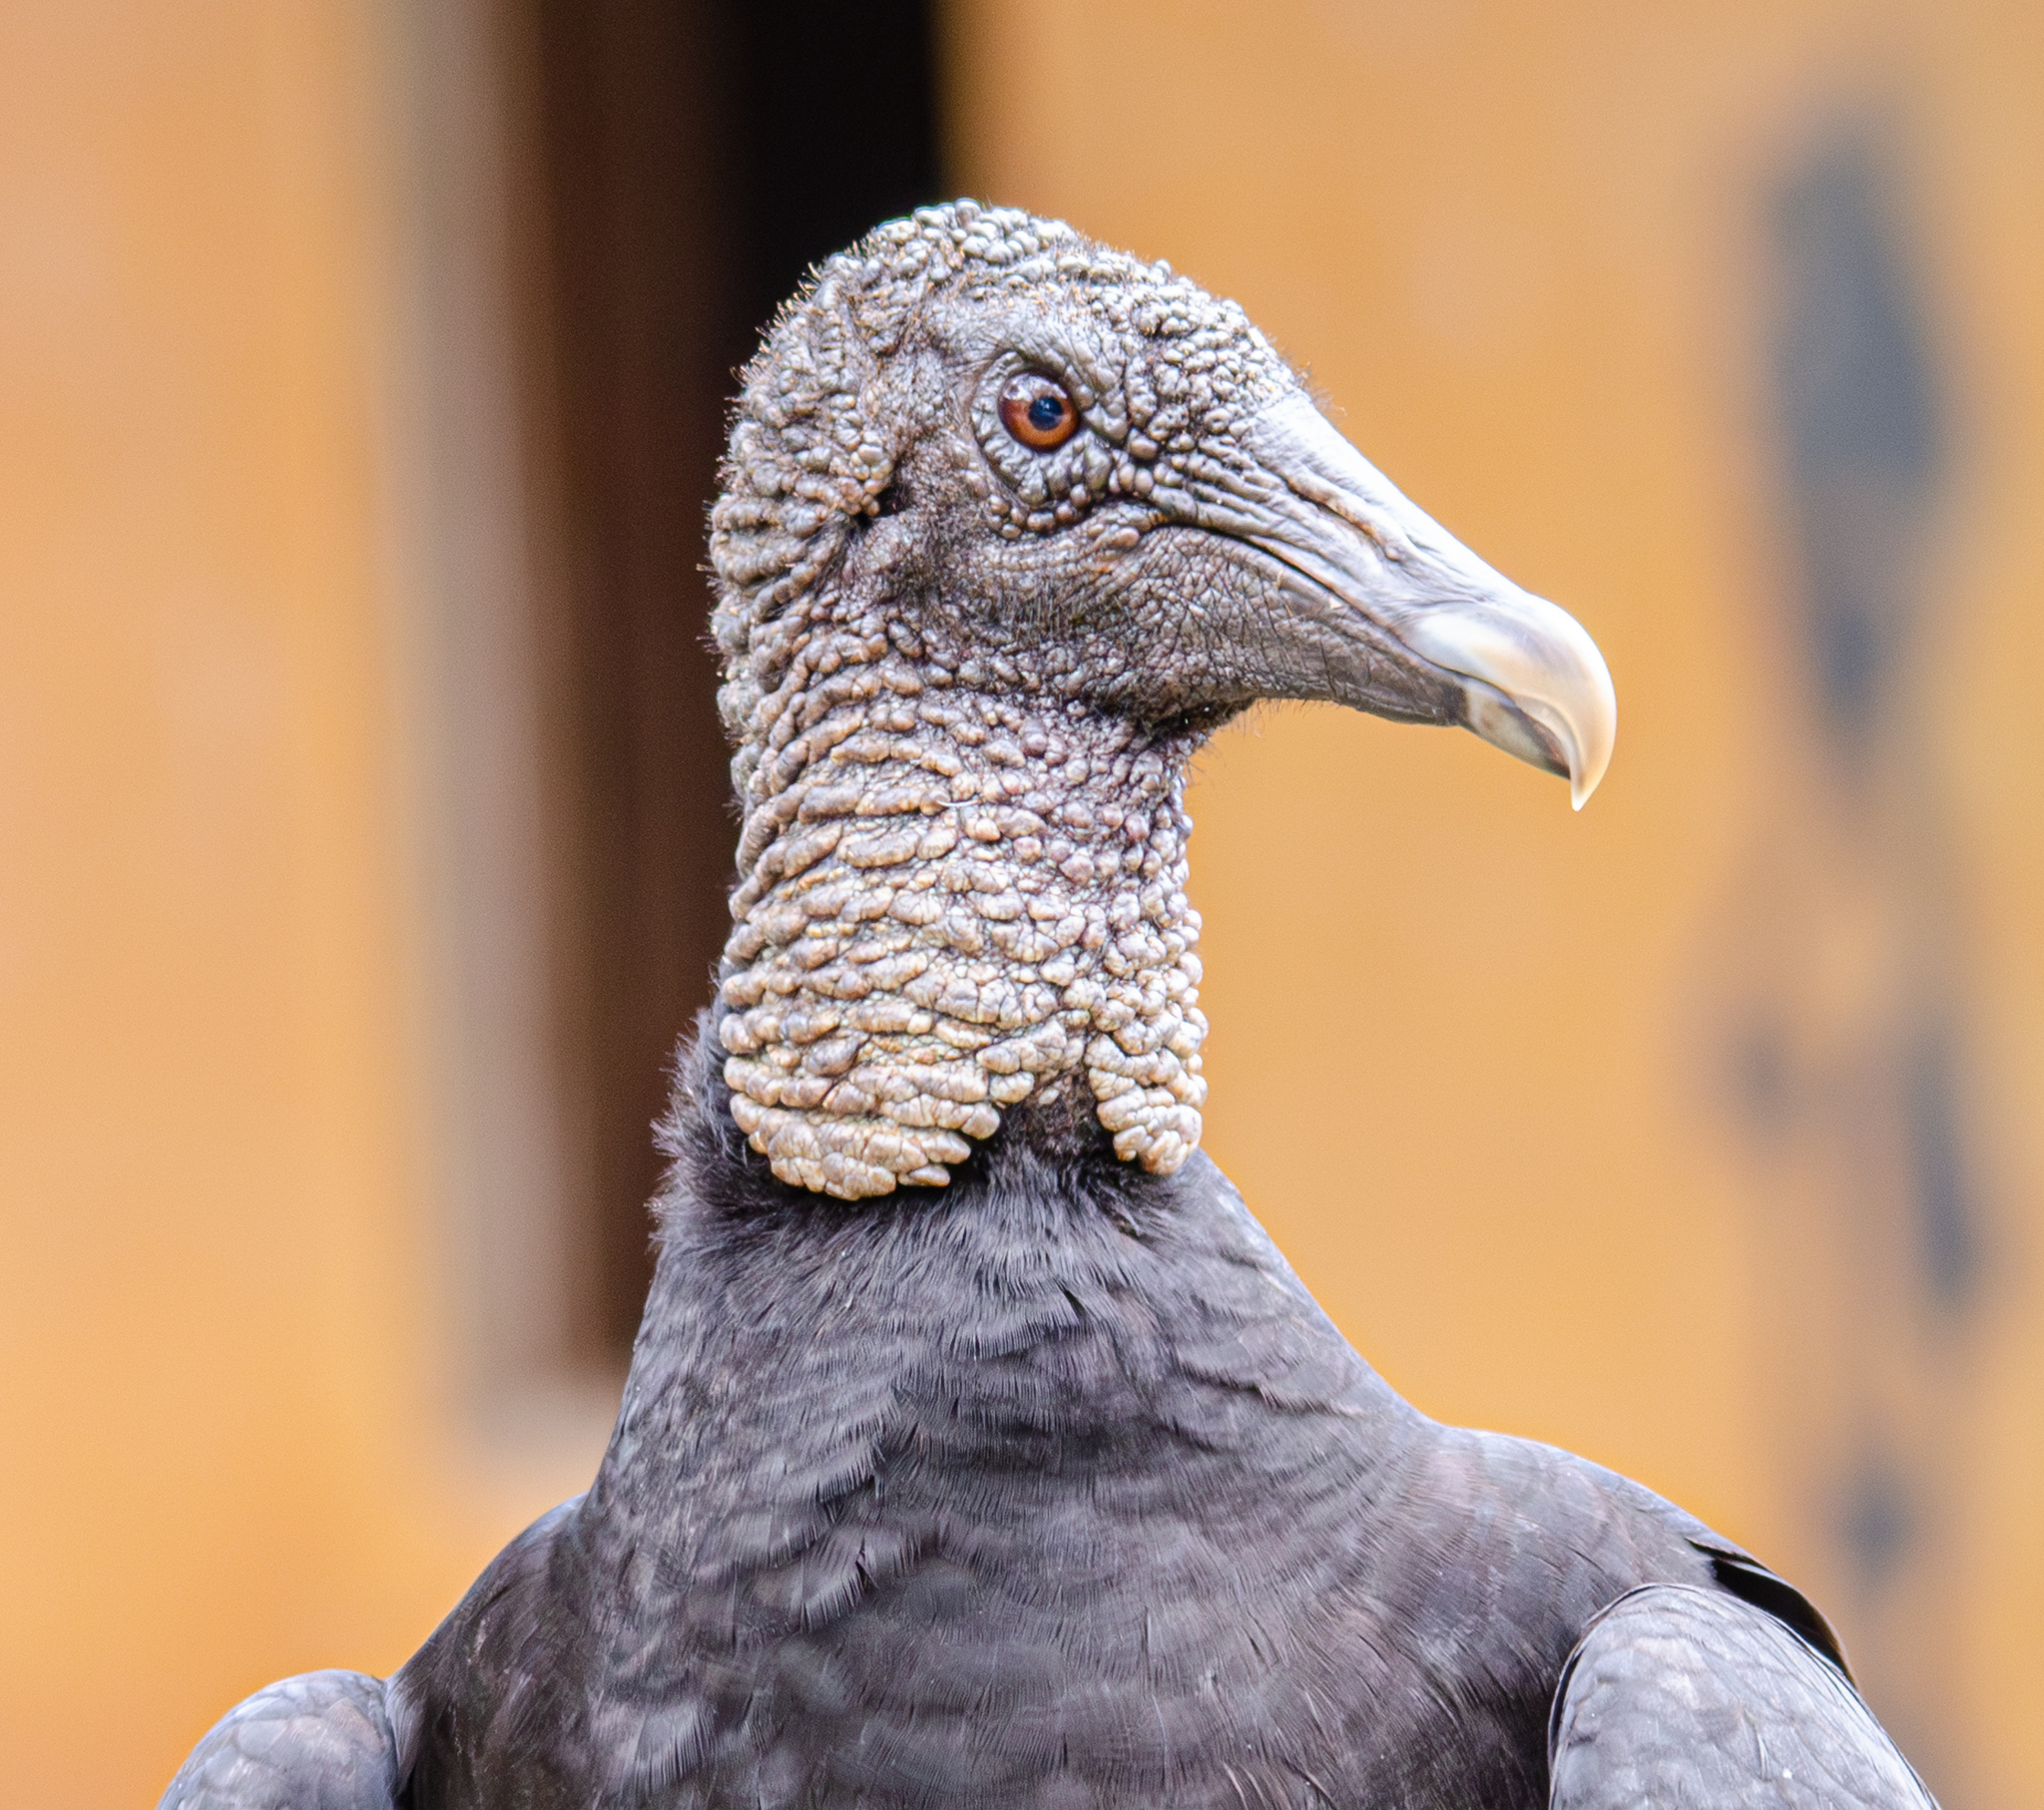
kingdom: Animalia
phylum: Chordata
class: Aves
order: Accipitriformes
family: Cathartidae
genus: Coragyps
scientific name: Coragyps atratus
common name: Black vulture
